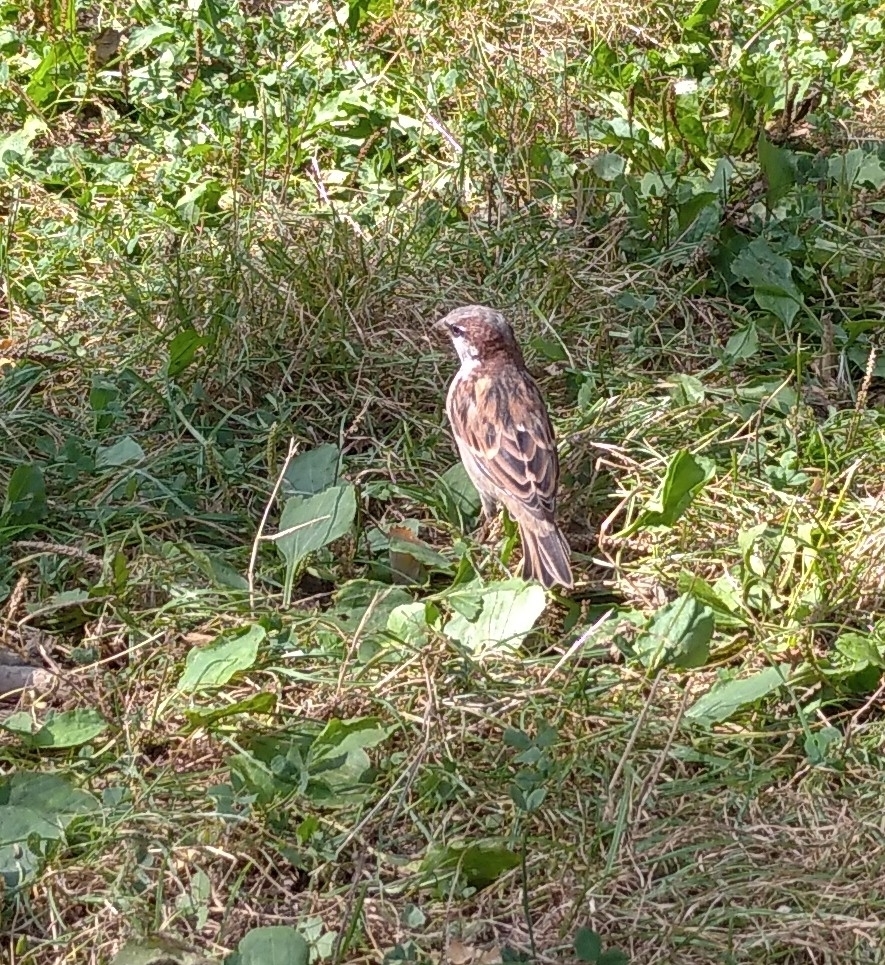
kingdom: Animalia
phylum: Chordata
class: Aves
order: Passeriformes
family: Passeridae
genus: Passer
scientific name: Passer domesticus
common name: House sparrow
